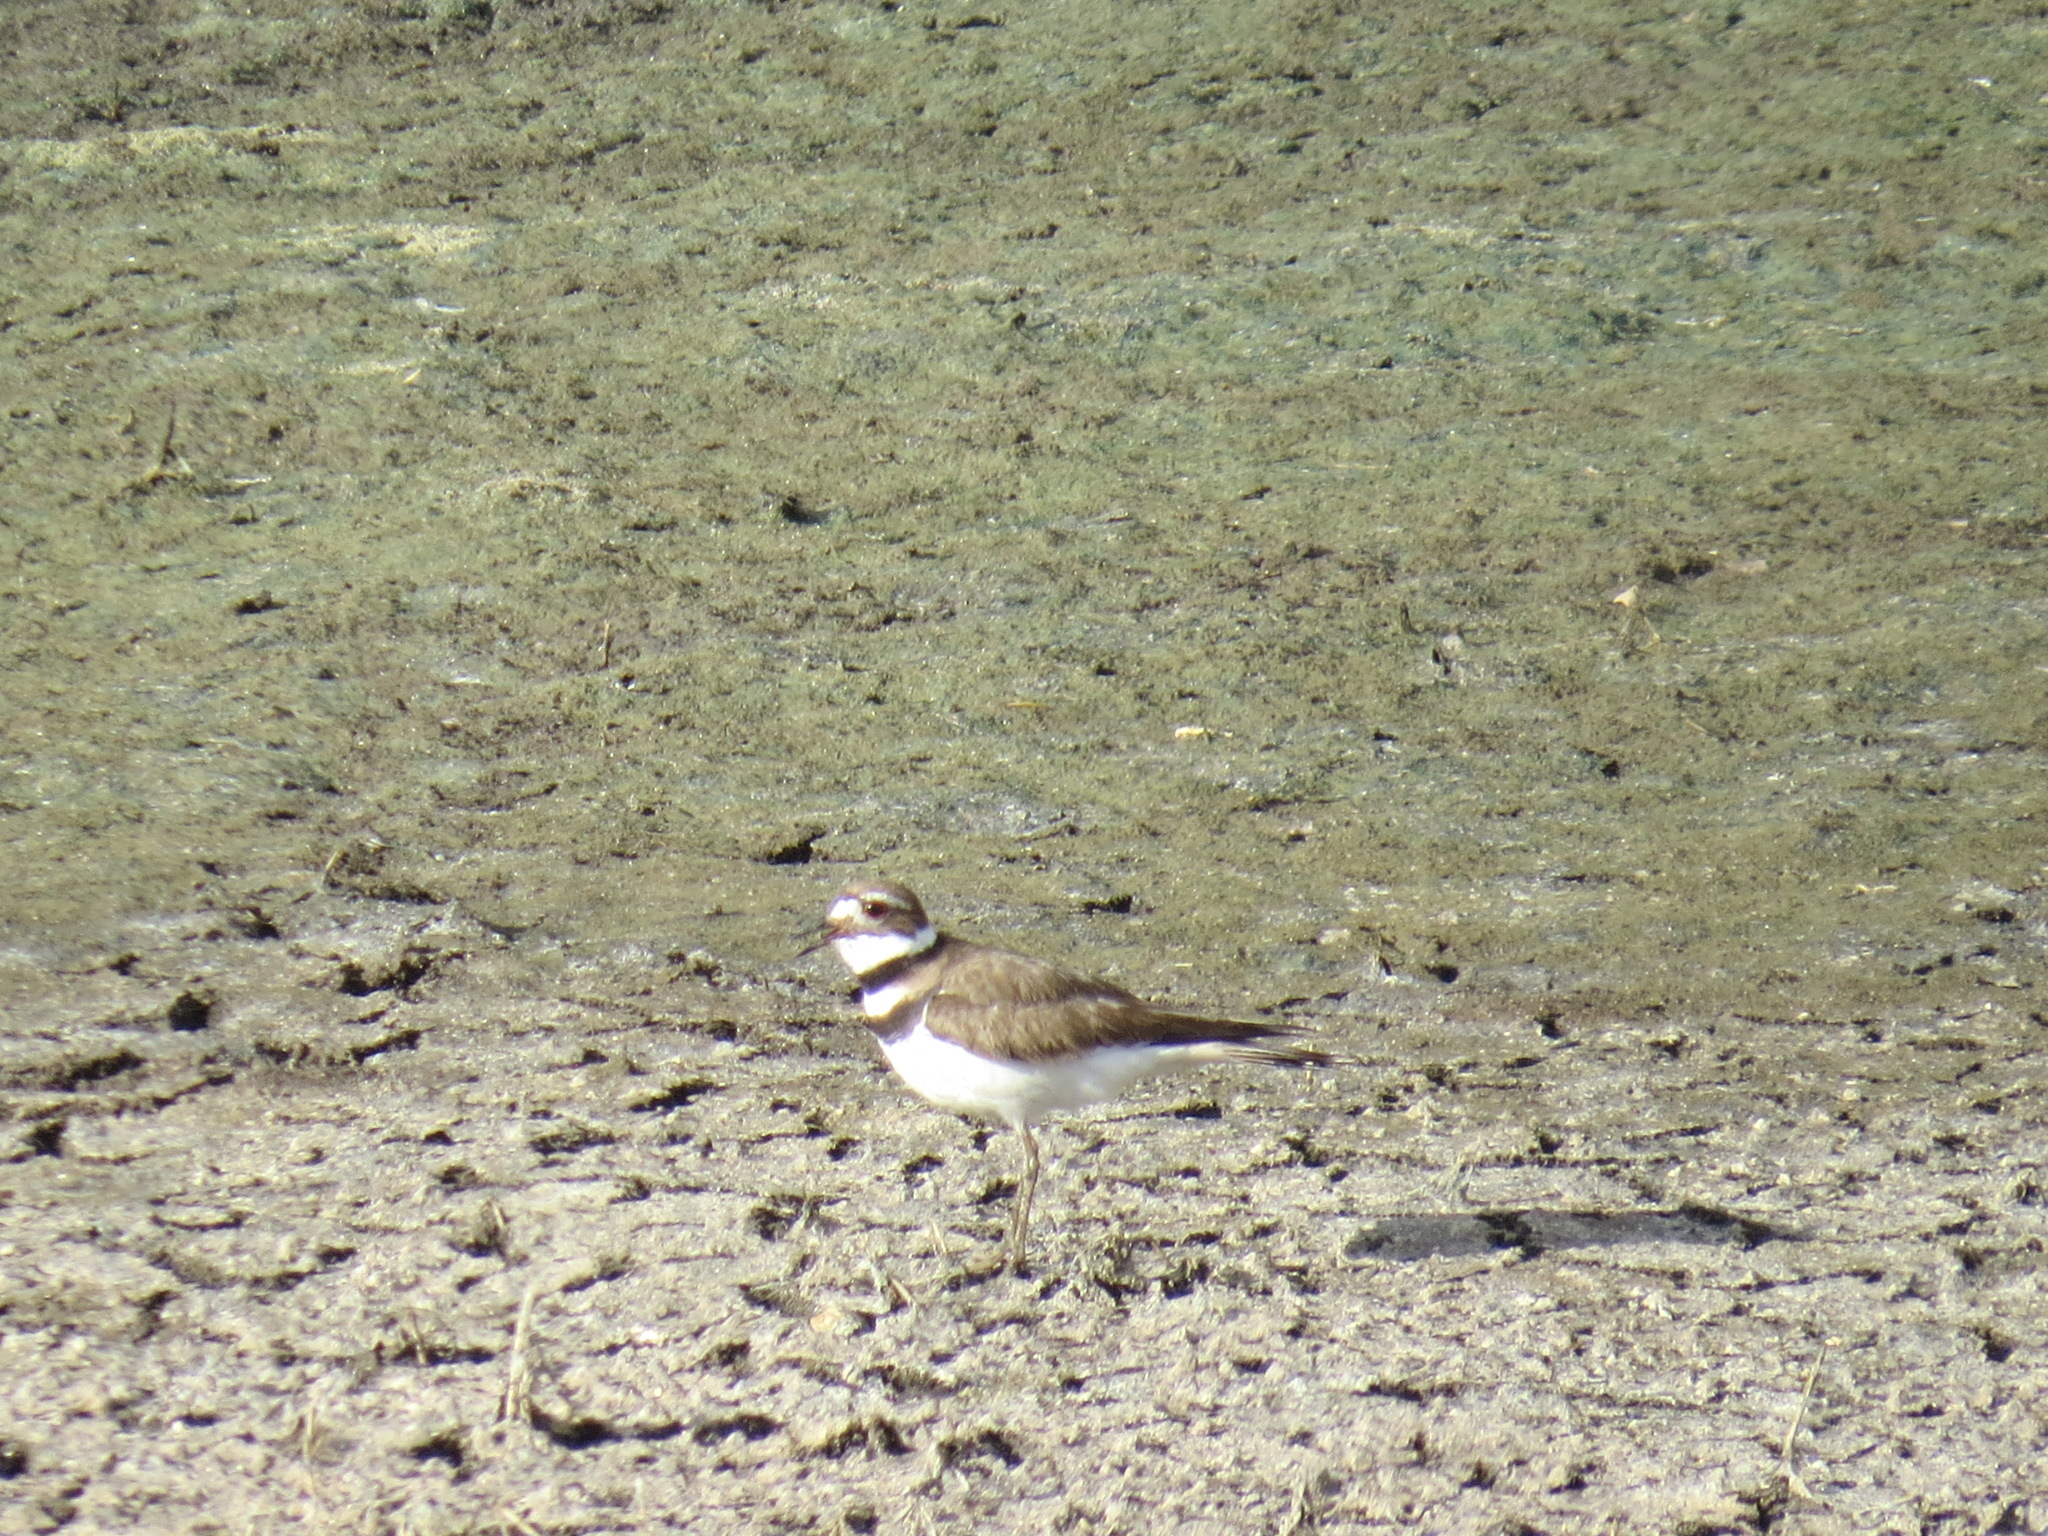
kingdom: Animalia
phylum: Chordata
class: Aves
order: Charadriiformes
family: Charadriidae
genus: Charadrius
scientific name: Charadrius vociferus
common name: Killdeer
